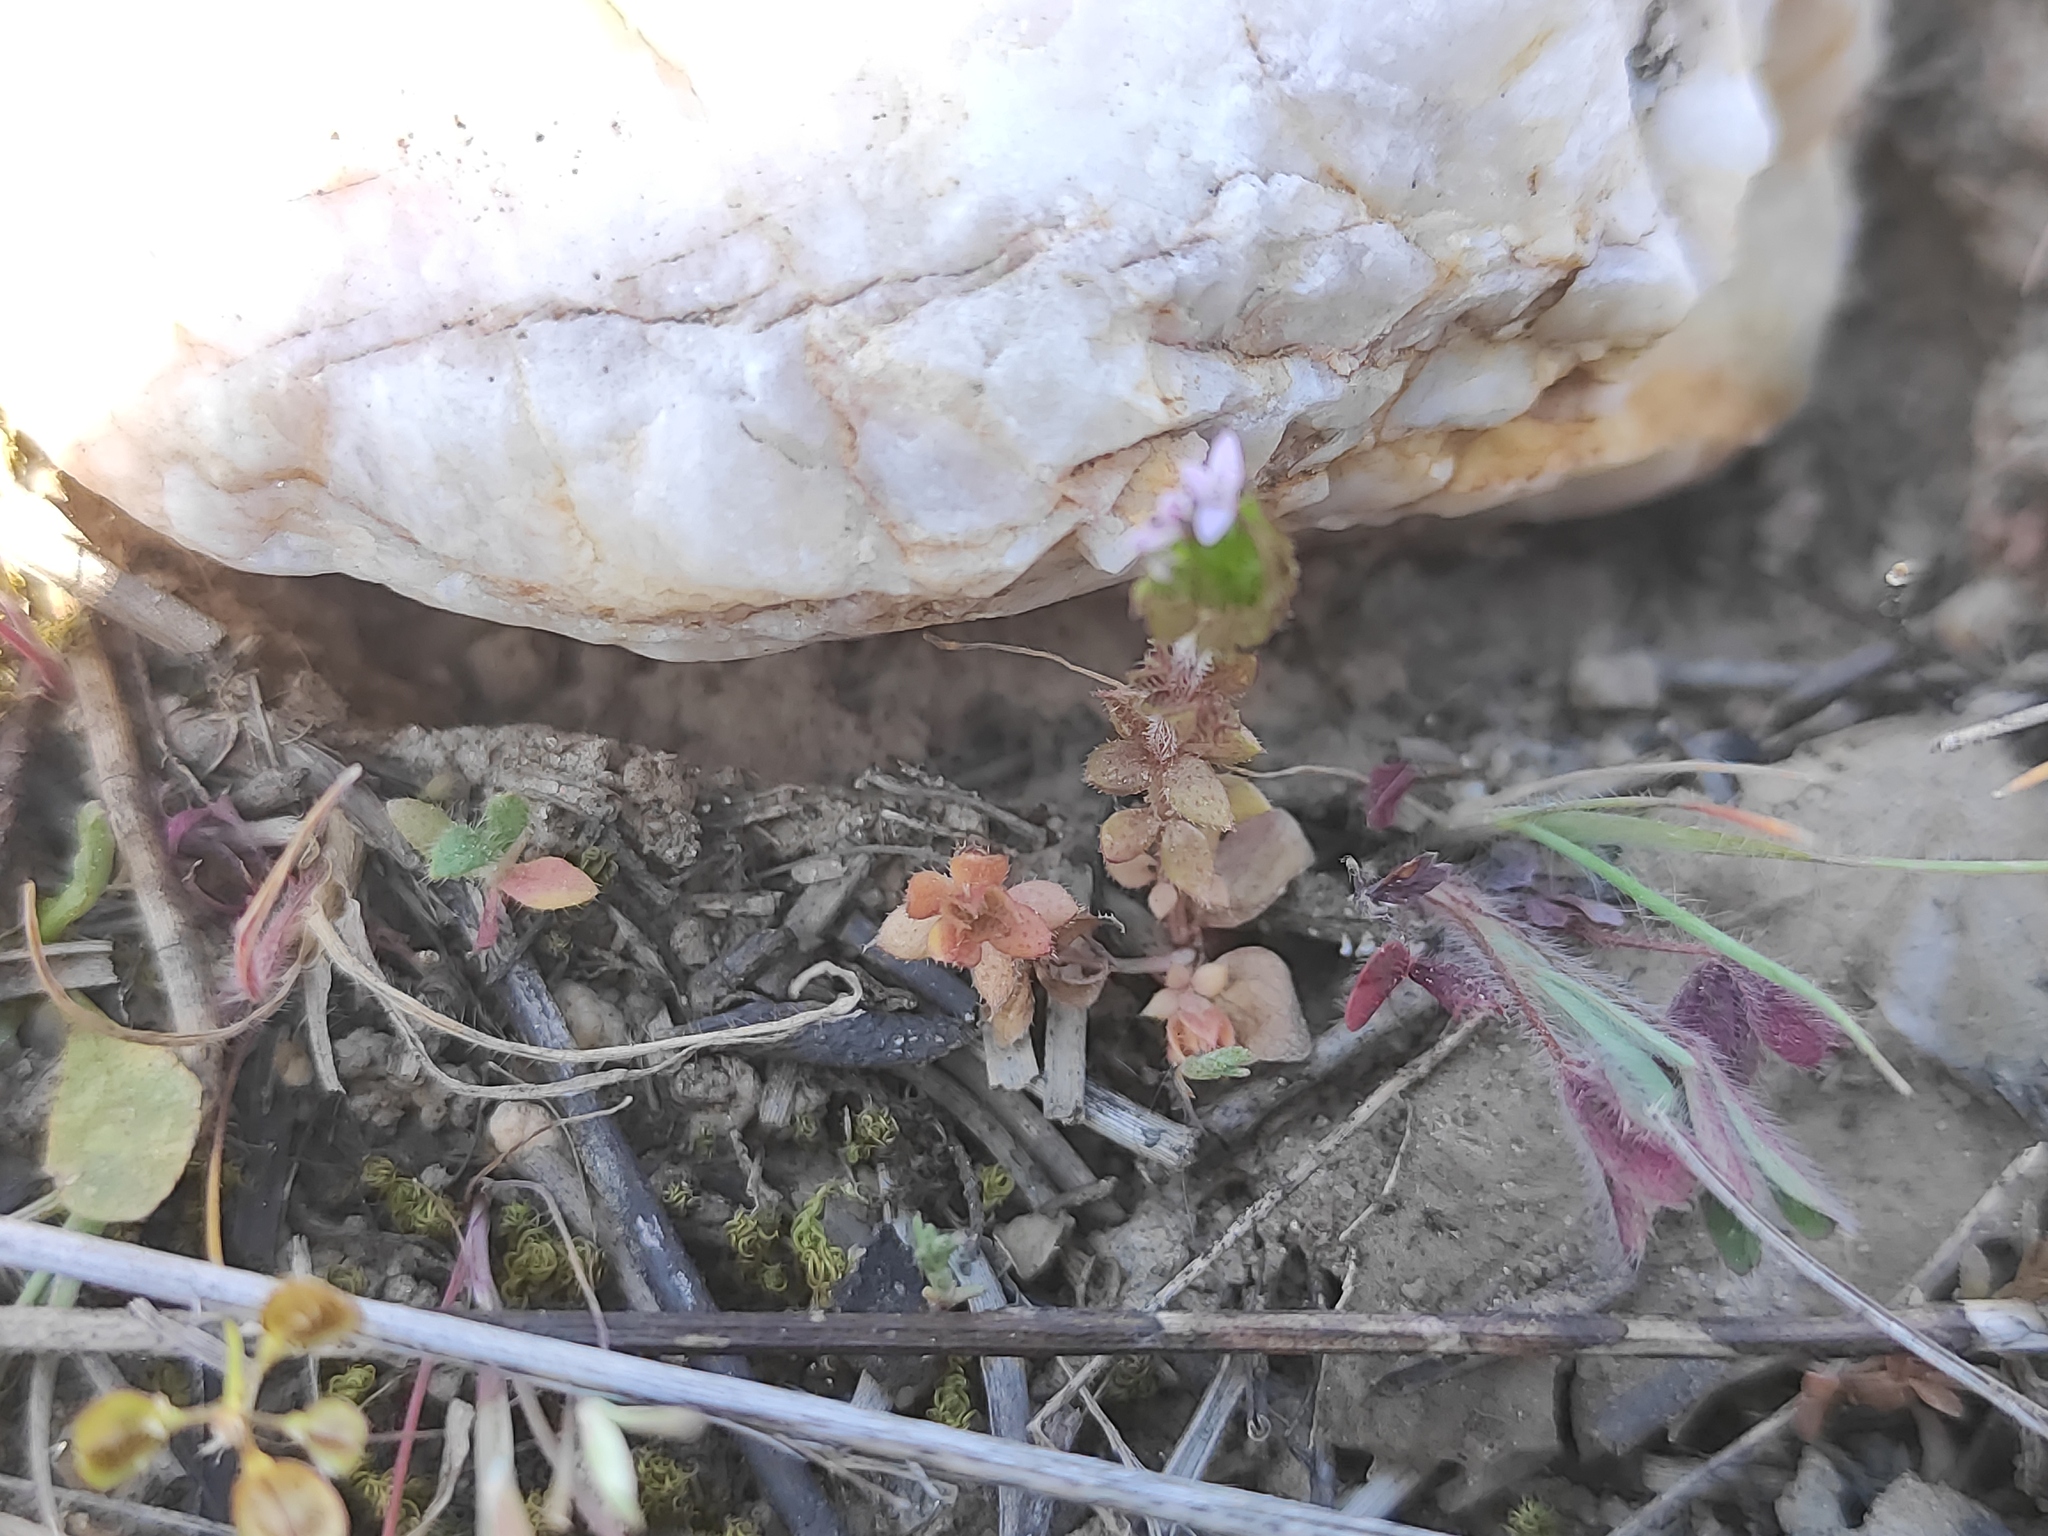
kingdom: Plantae
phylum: Tracheophyta
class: Magnoliopsida
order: Gentianales
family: Rubiaceae
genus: Sherardia
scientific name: Sherardia arvensis
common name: Field madder
